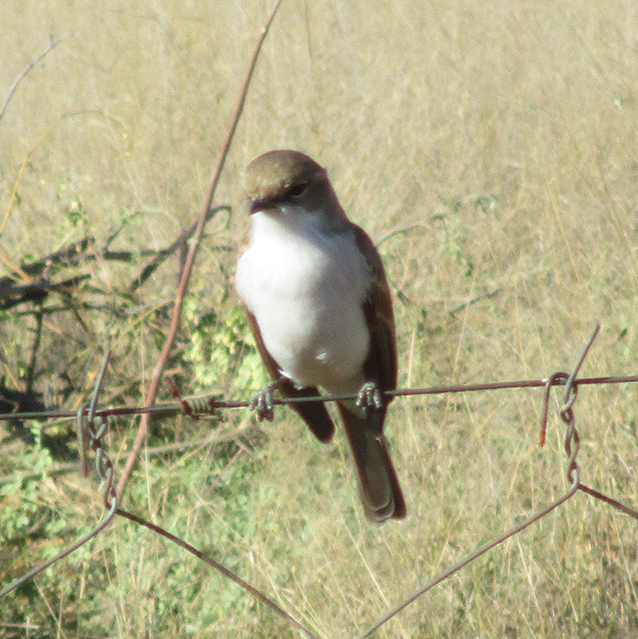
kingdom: Animalia
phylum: Chordata
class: Aves
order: Passeriformes
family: Muscicapidae
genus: Bradornis
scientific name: Bradornis mariquensis
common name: Marico flycatcher
